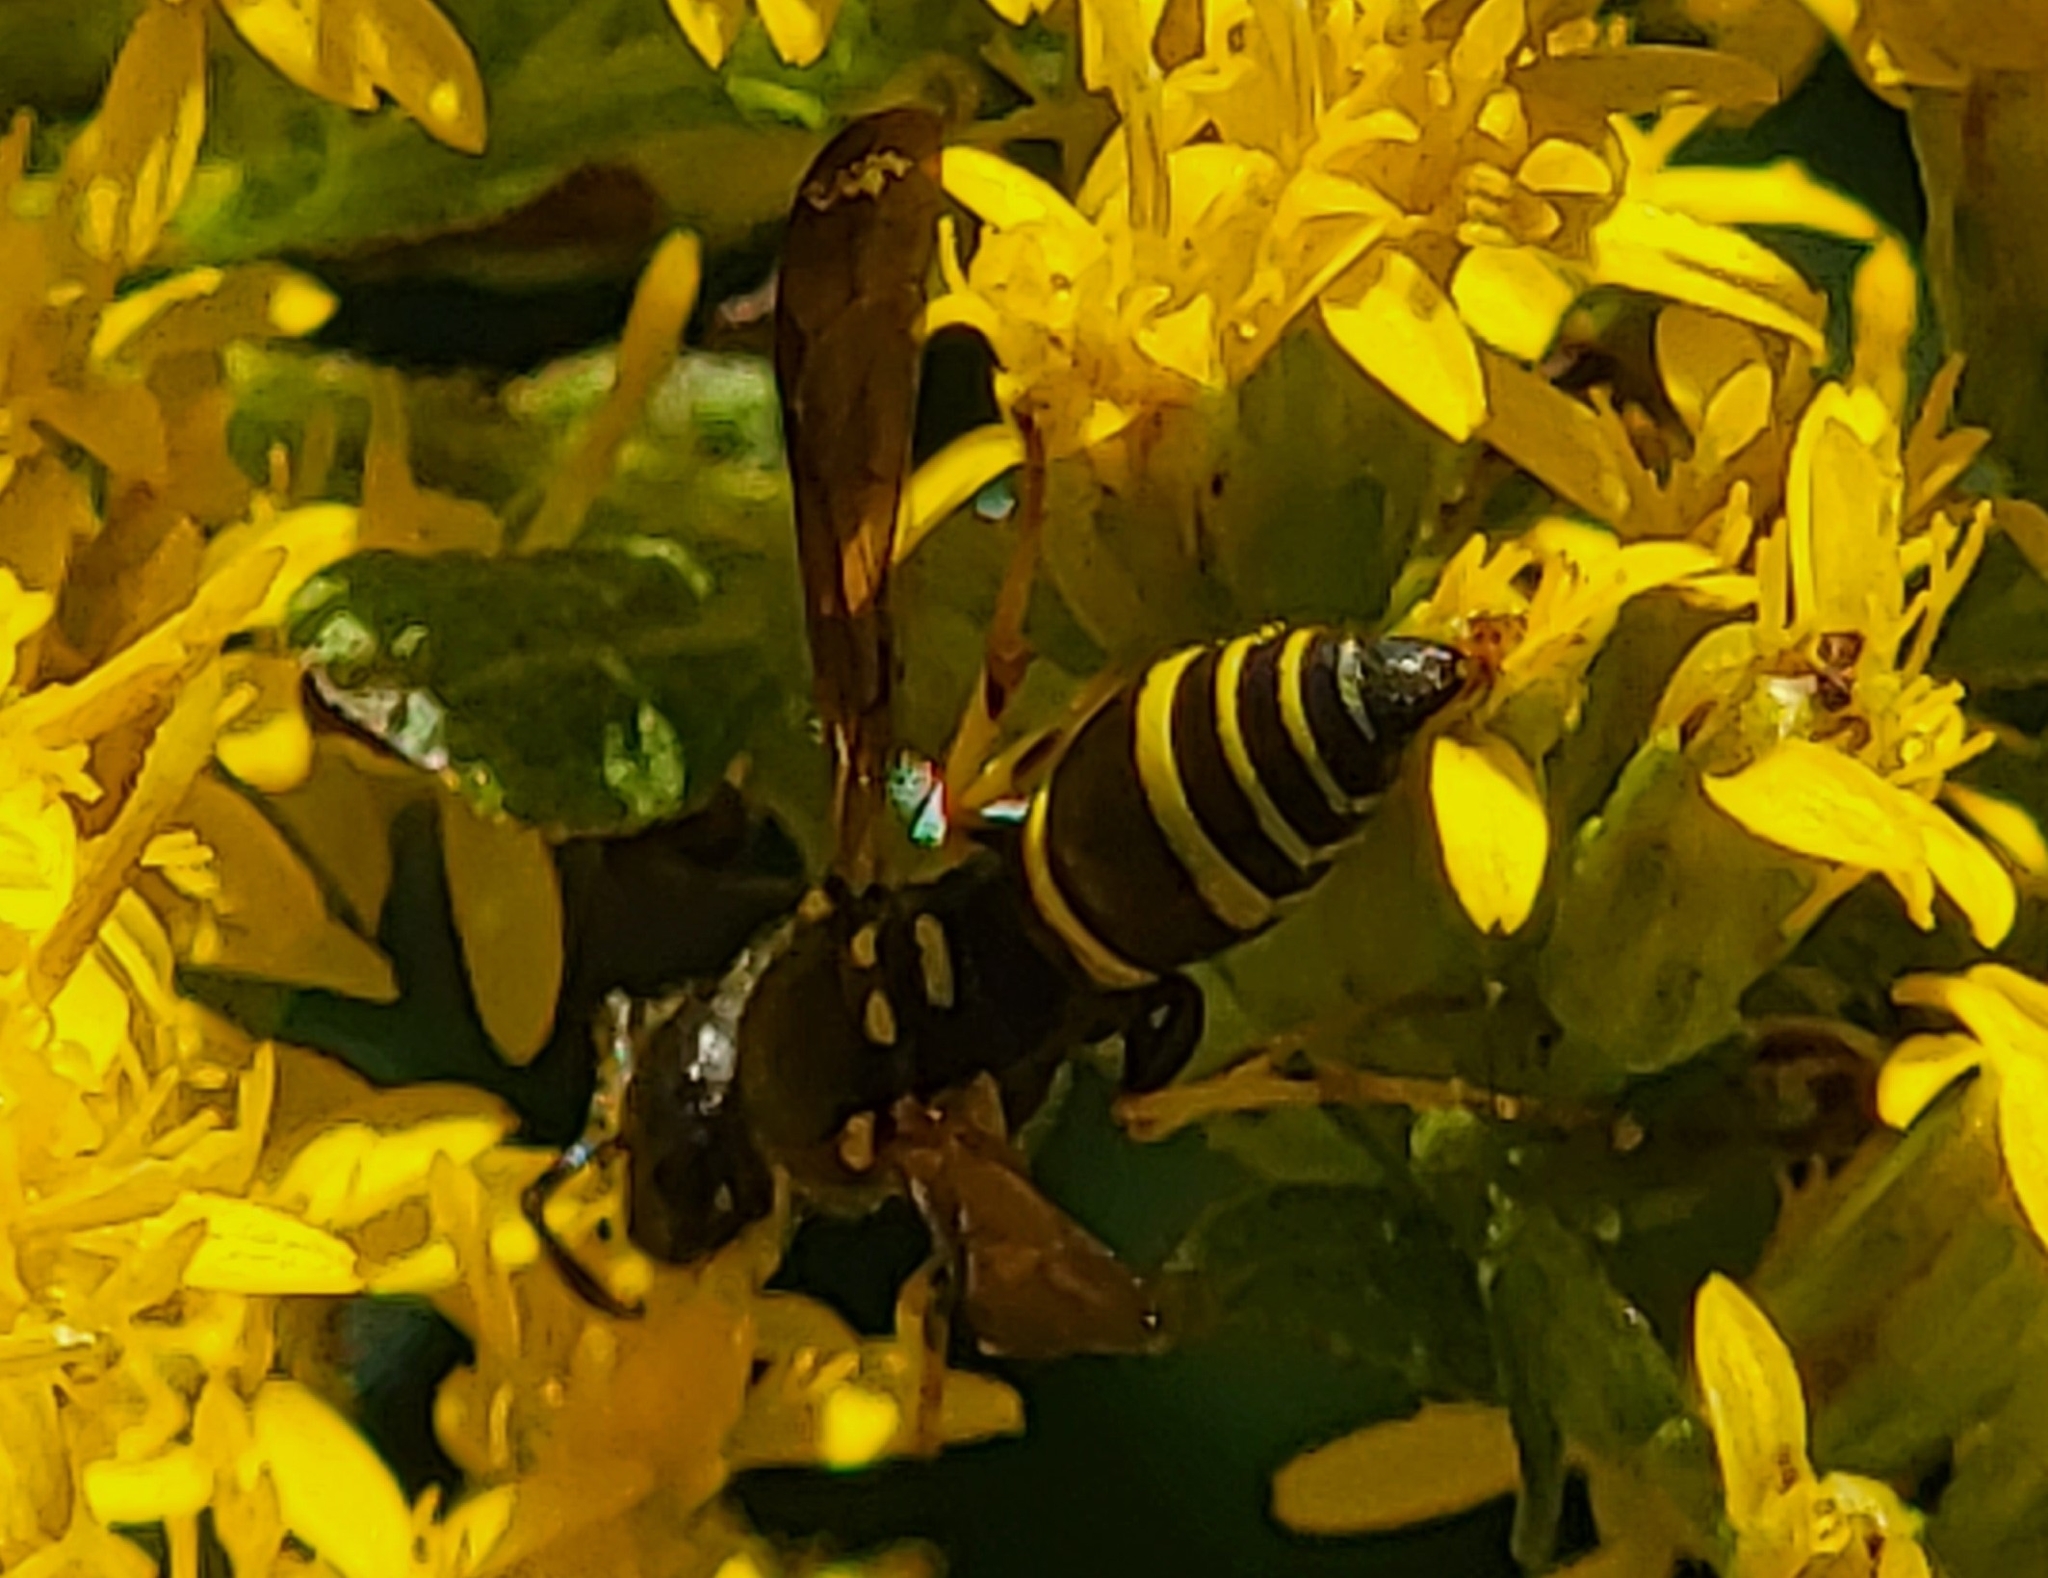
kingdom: Animalia
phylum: Arthropoda
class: Insecta
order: Hymenoptera
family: Vespidae
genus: Ancistrocerus
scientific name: Ancistrocerus adiabatus
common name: Bramble mason wasp
